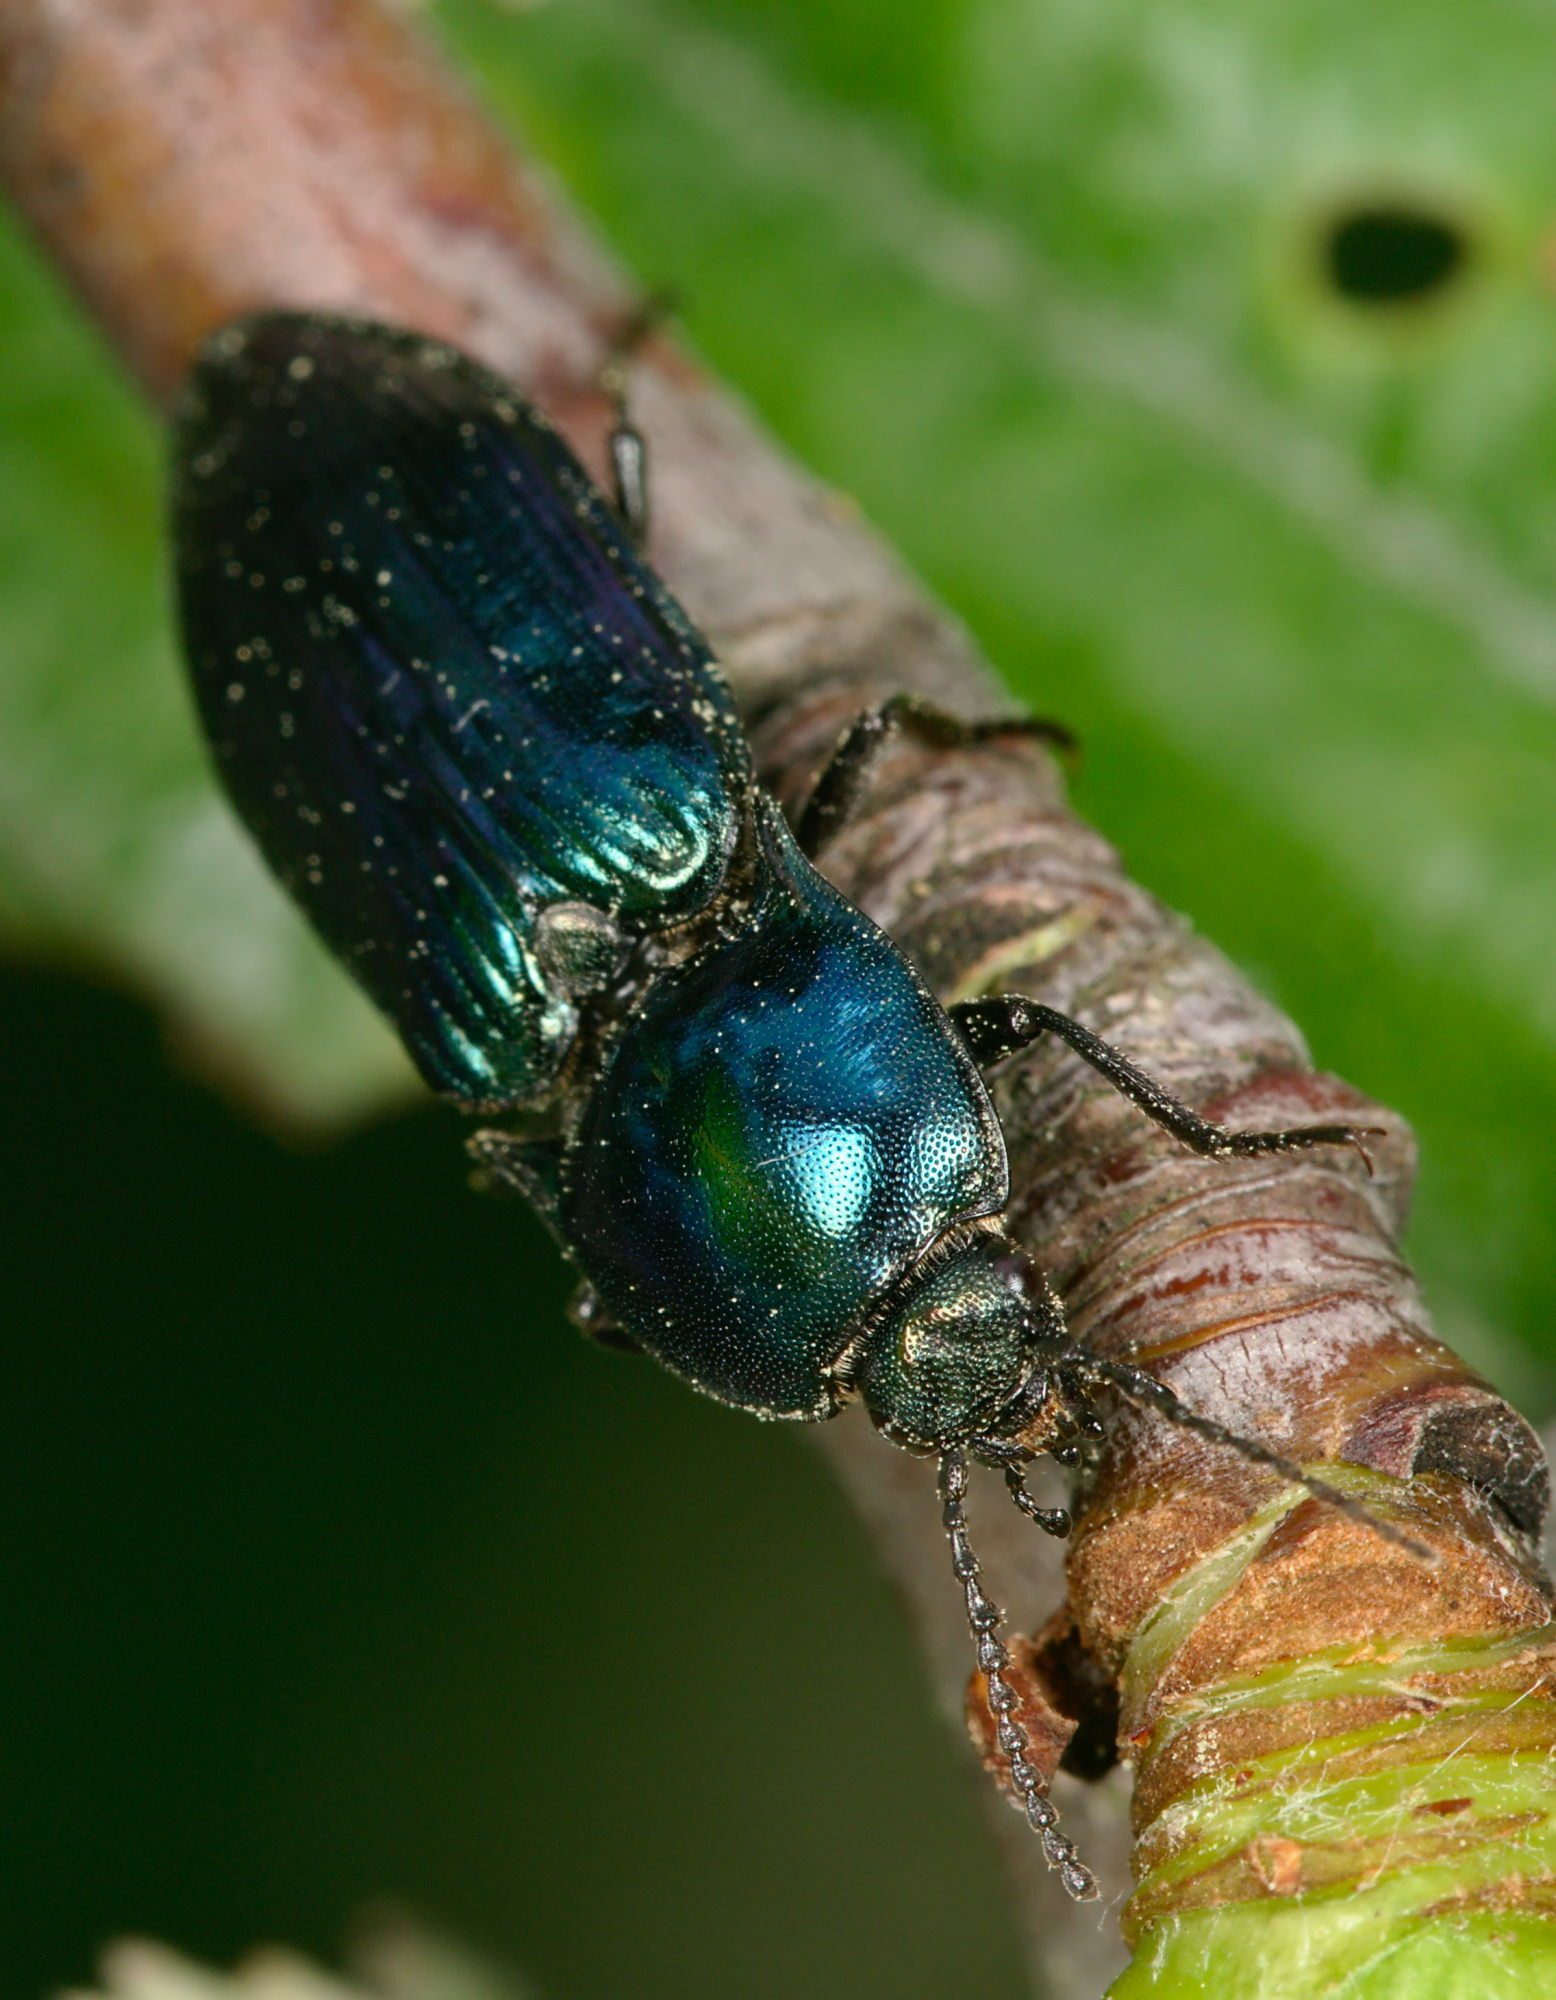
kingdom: Animalia
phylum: Arthropoda
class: Insecta
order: Coleoptera
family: Elateridae
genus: Selatosomus
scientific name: Selatosomus aeneus
